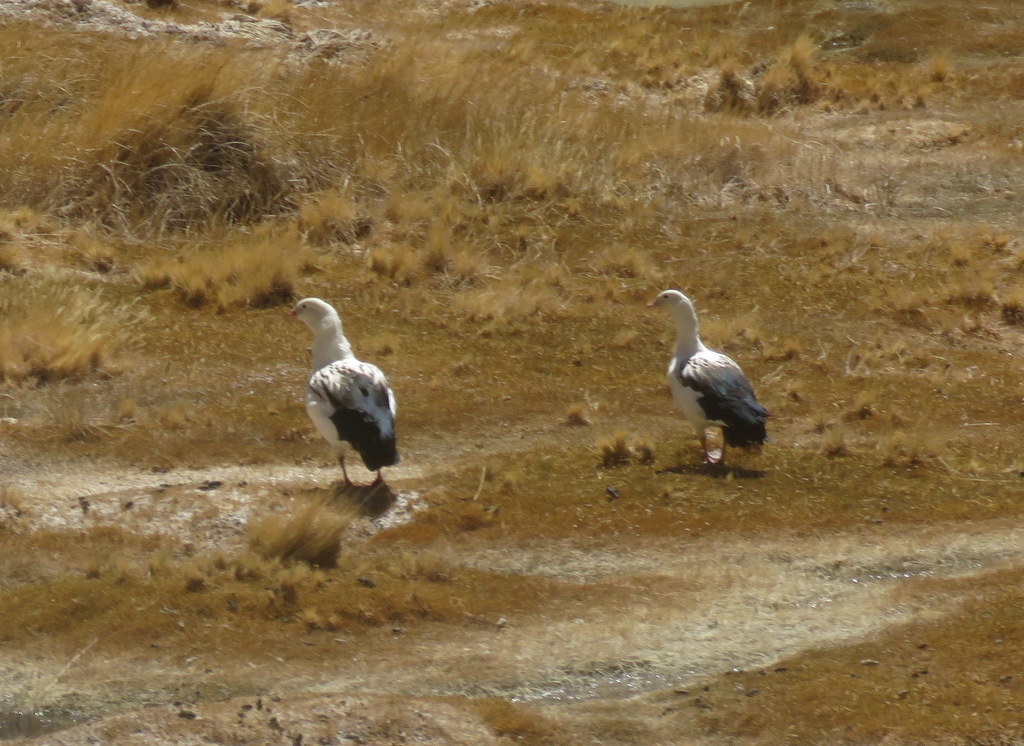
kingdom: Animalia
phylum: Chordata
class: Aves
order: Anseriformes
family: Anatidae
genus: Chloephaga
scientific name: Chloephaga melanoptera
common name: Andean goose
